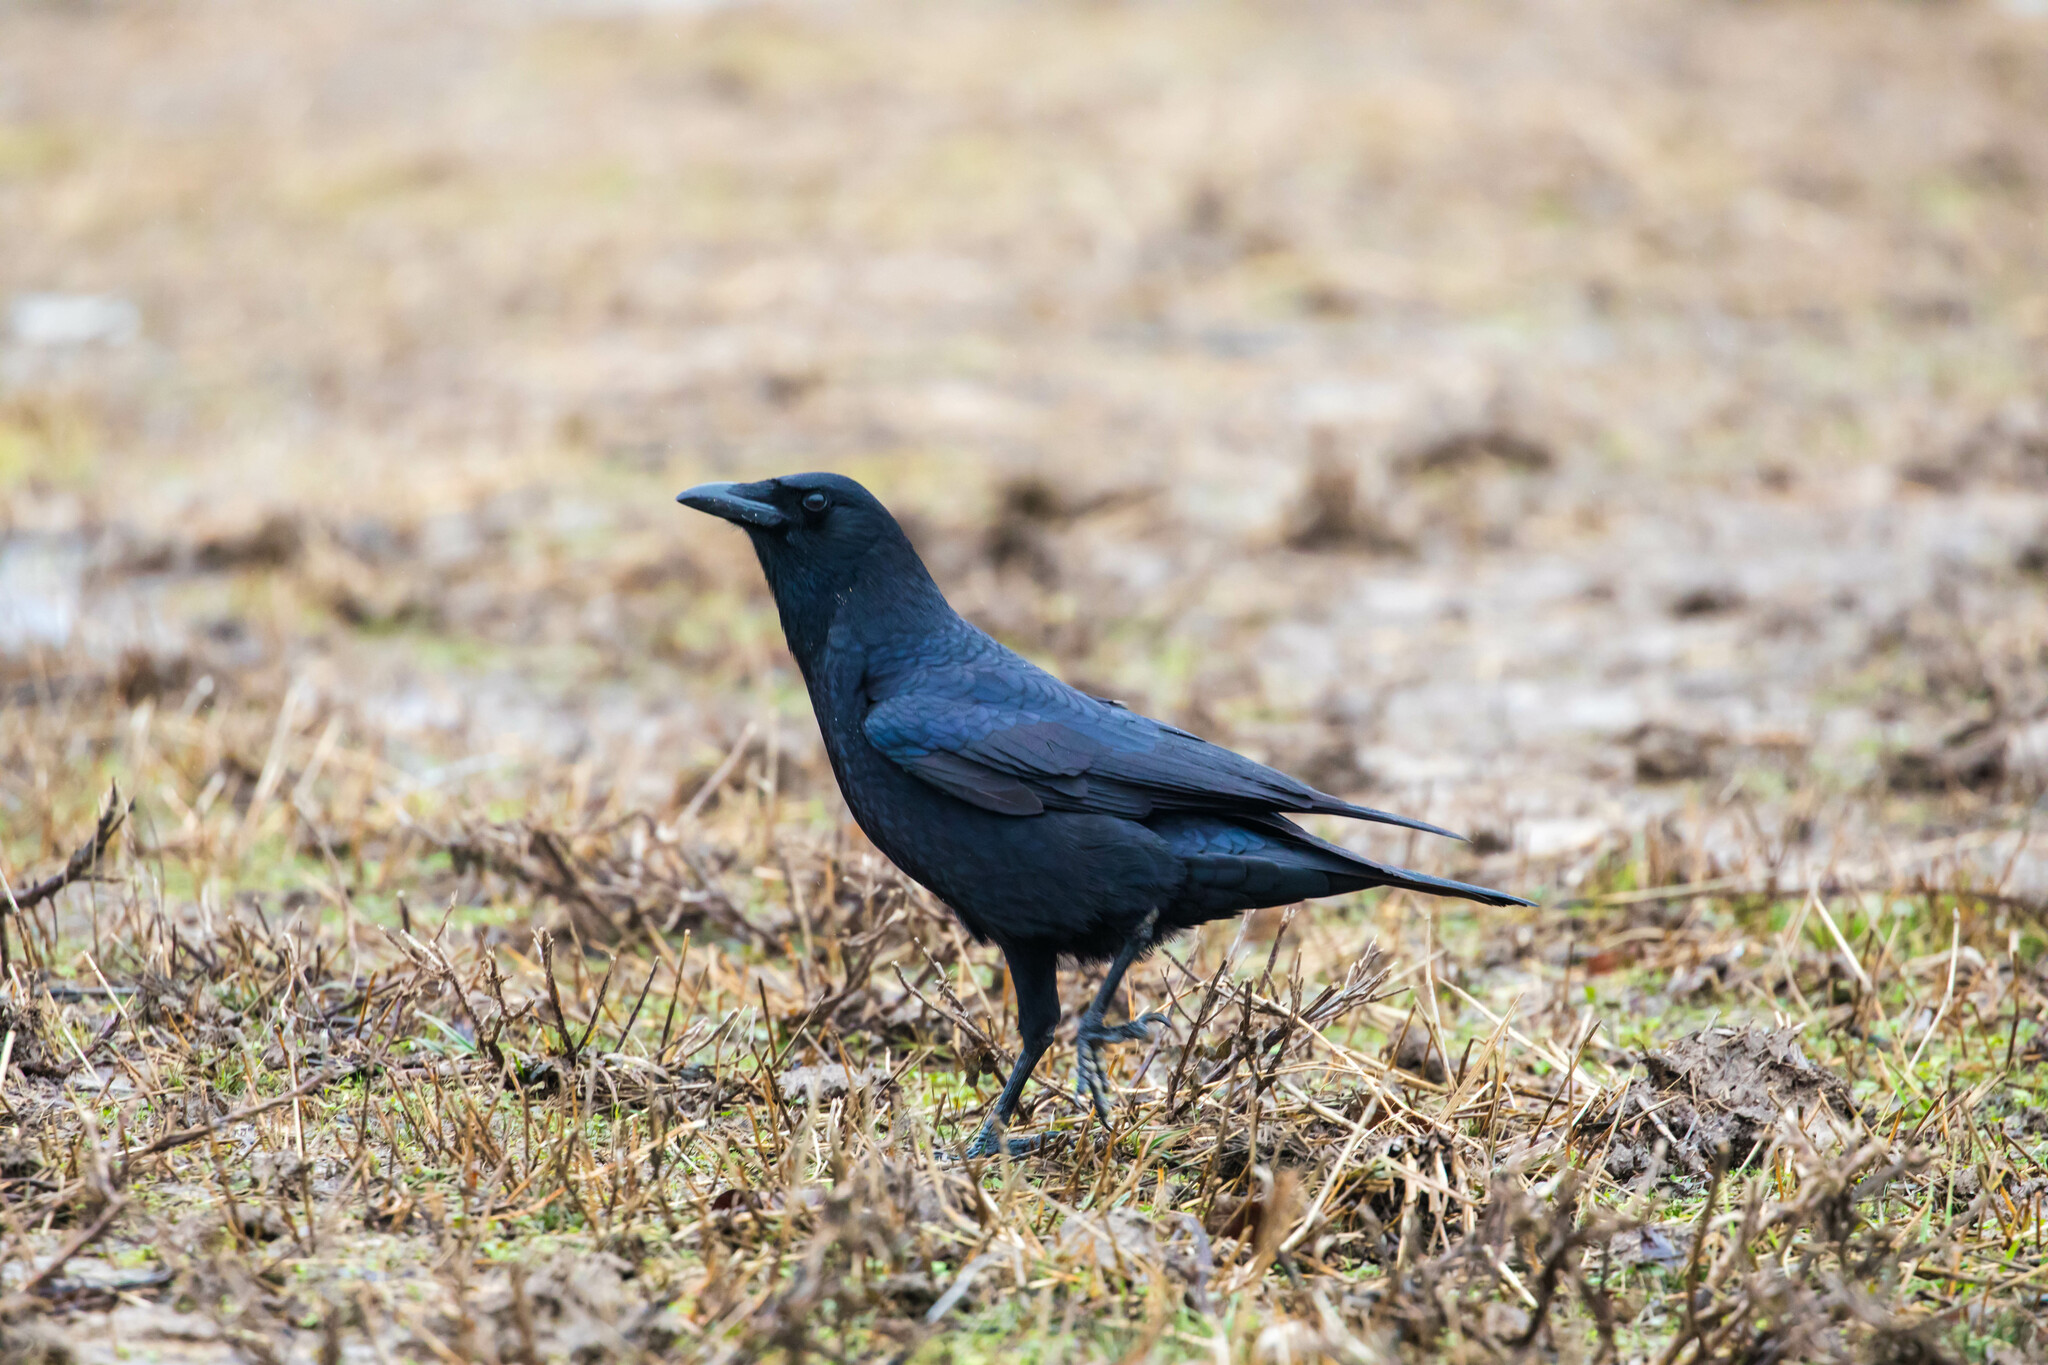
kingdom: Animalia
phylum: Chordata
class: Aves
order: Passeriformes
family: Corvidae
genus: Corvus
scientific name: Corvus brachyrhynchos
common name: American crow
